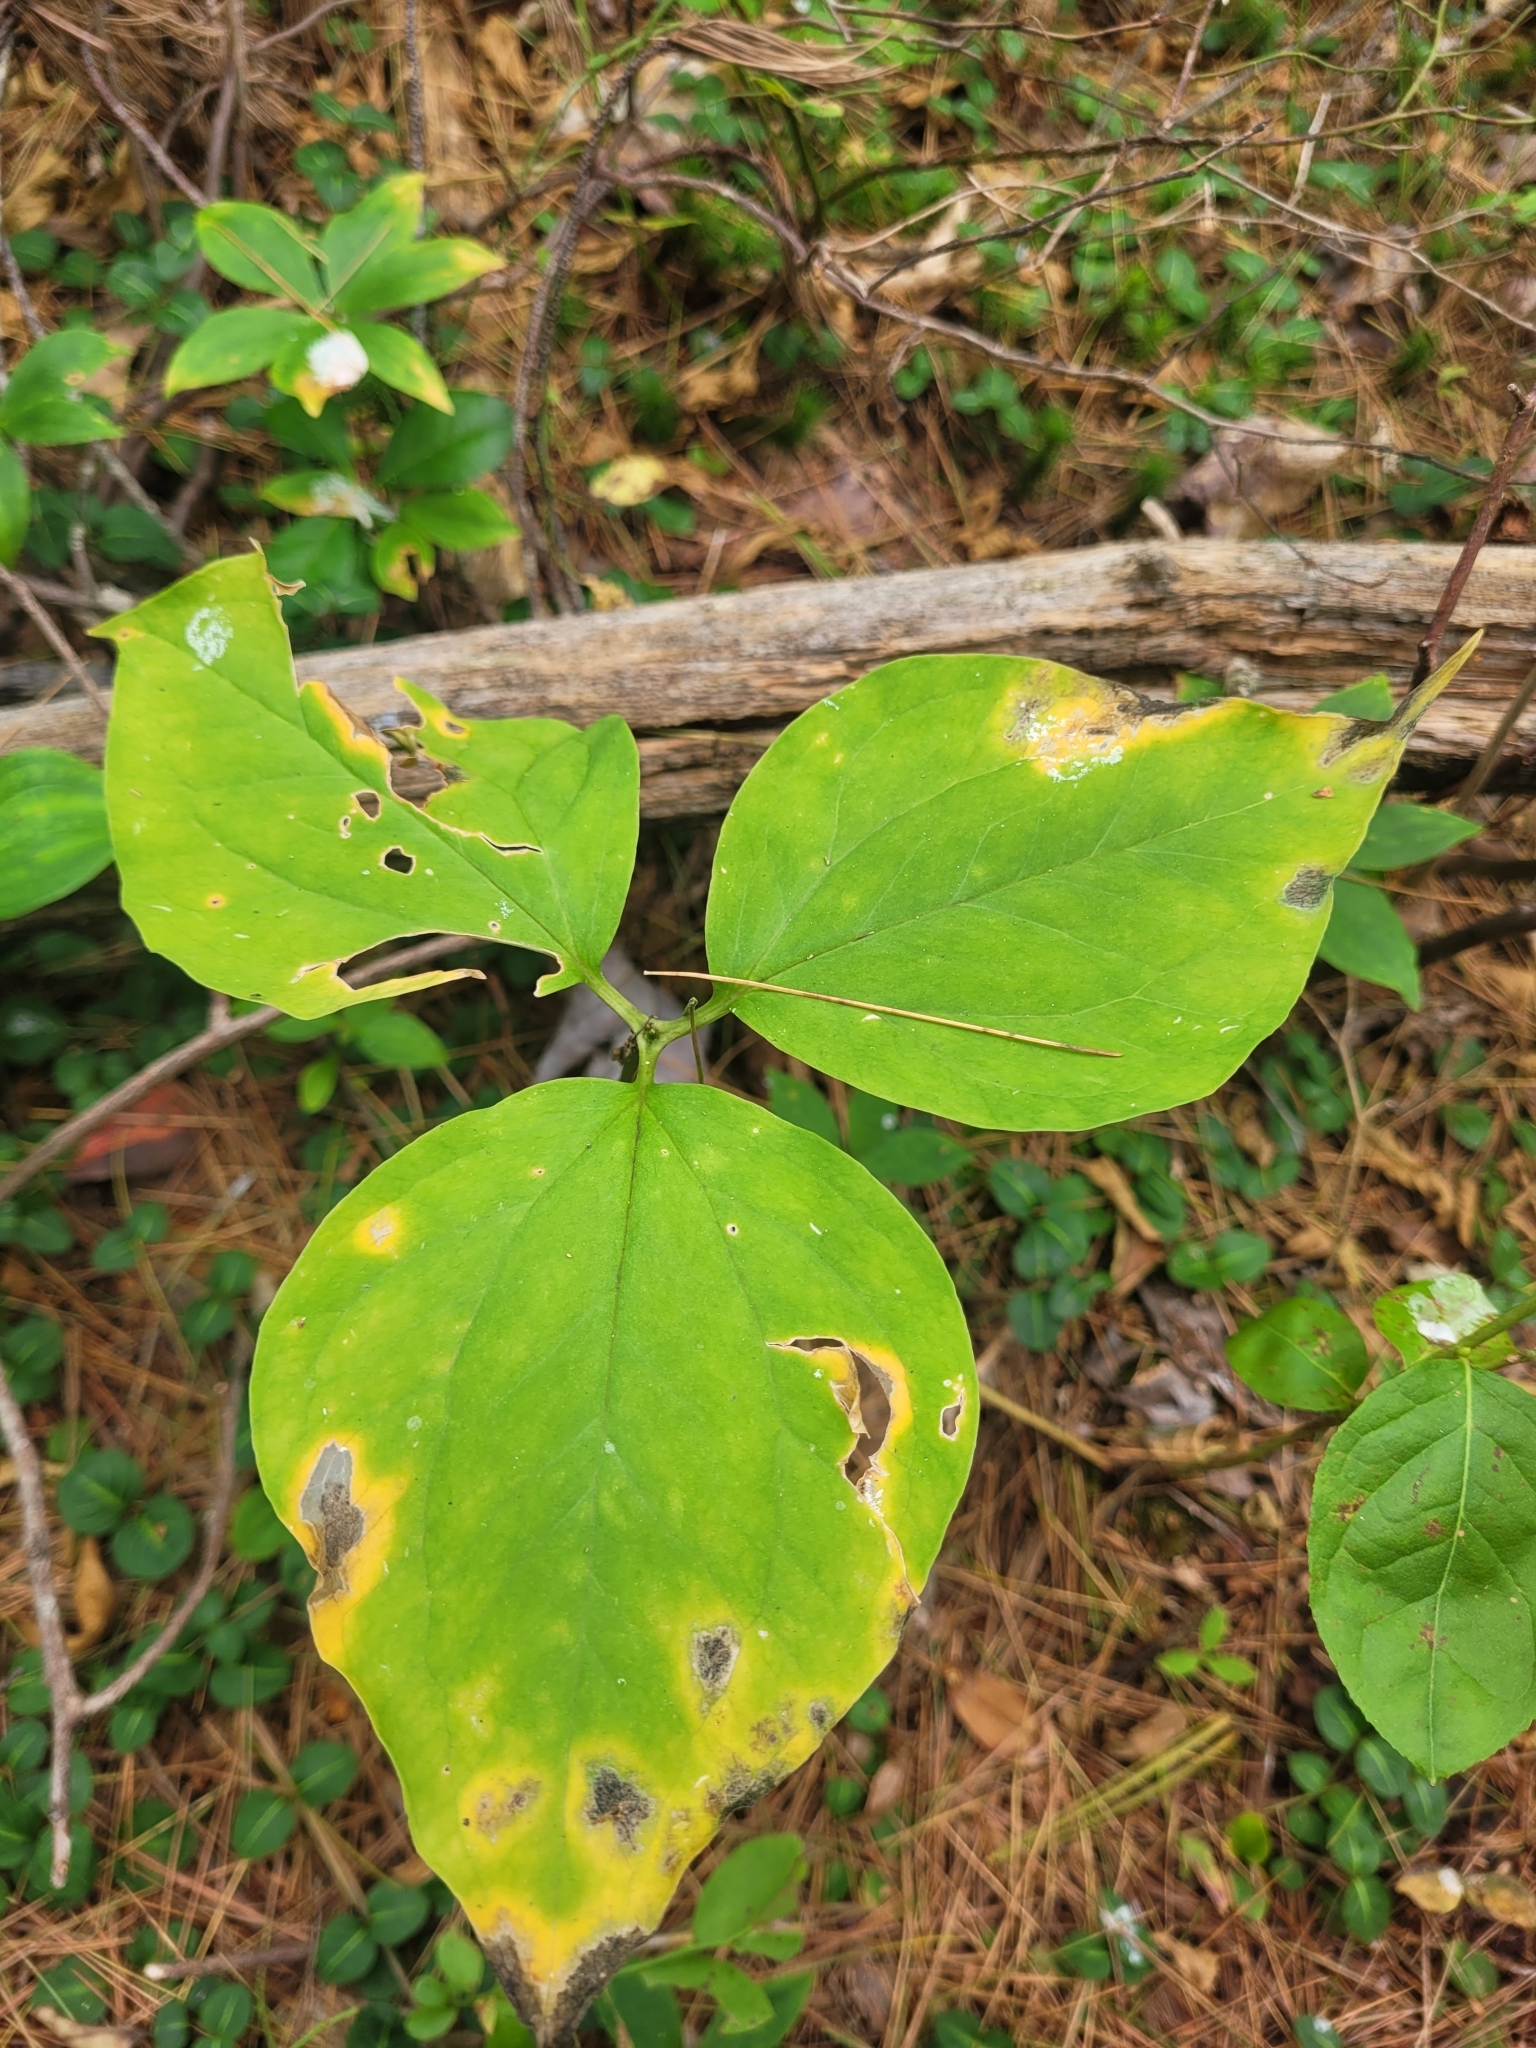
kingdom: Plantae
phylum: Tracheophyta
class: Liliopsida
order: Liliales
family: Melanthiaceae
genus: Trillium
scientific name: Trillium undulatum
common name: Paint trillium
